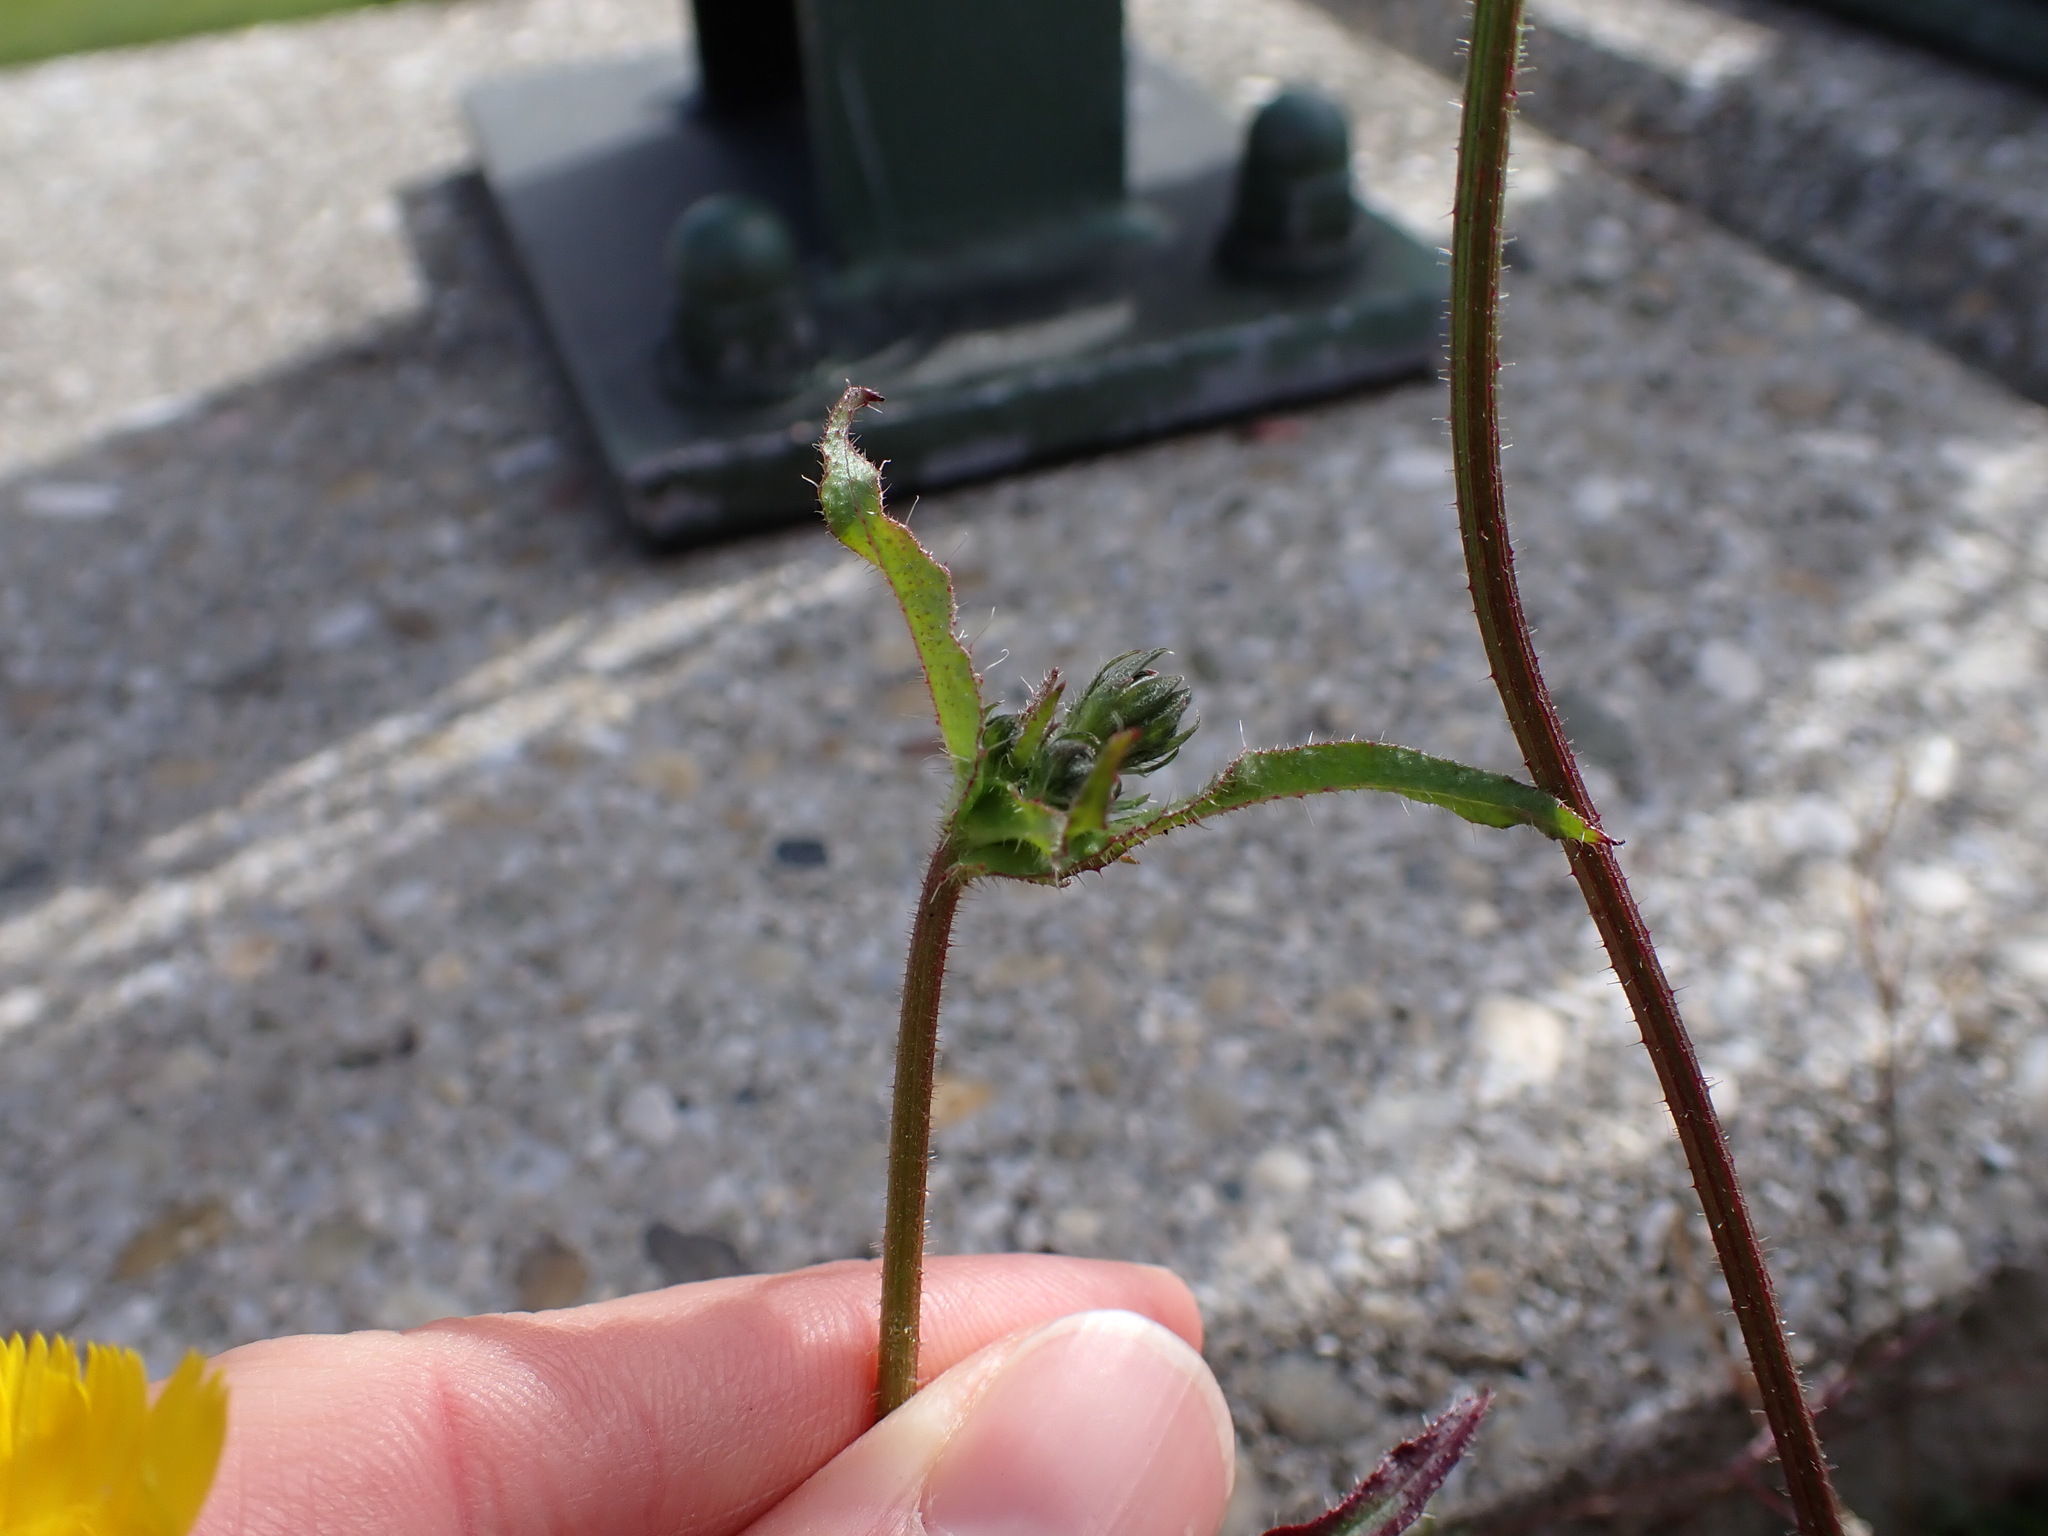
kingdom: Plantae
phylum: Tracheophyta
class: Magnoliopsida
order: Asterales
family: Asteraceae
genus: Picris
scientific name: Picris hieracioides
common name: Hawkweed oxtongue
